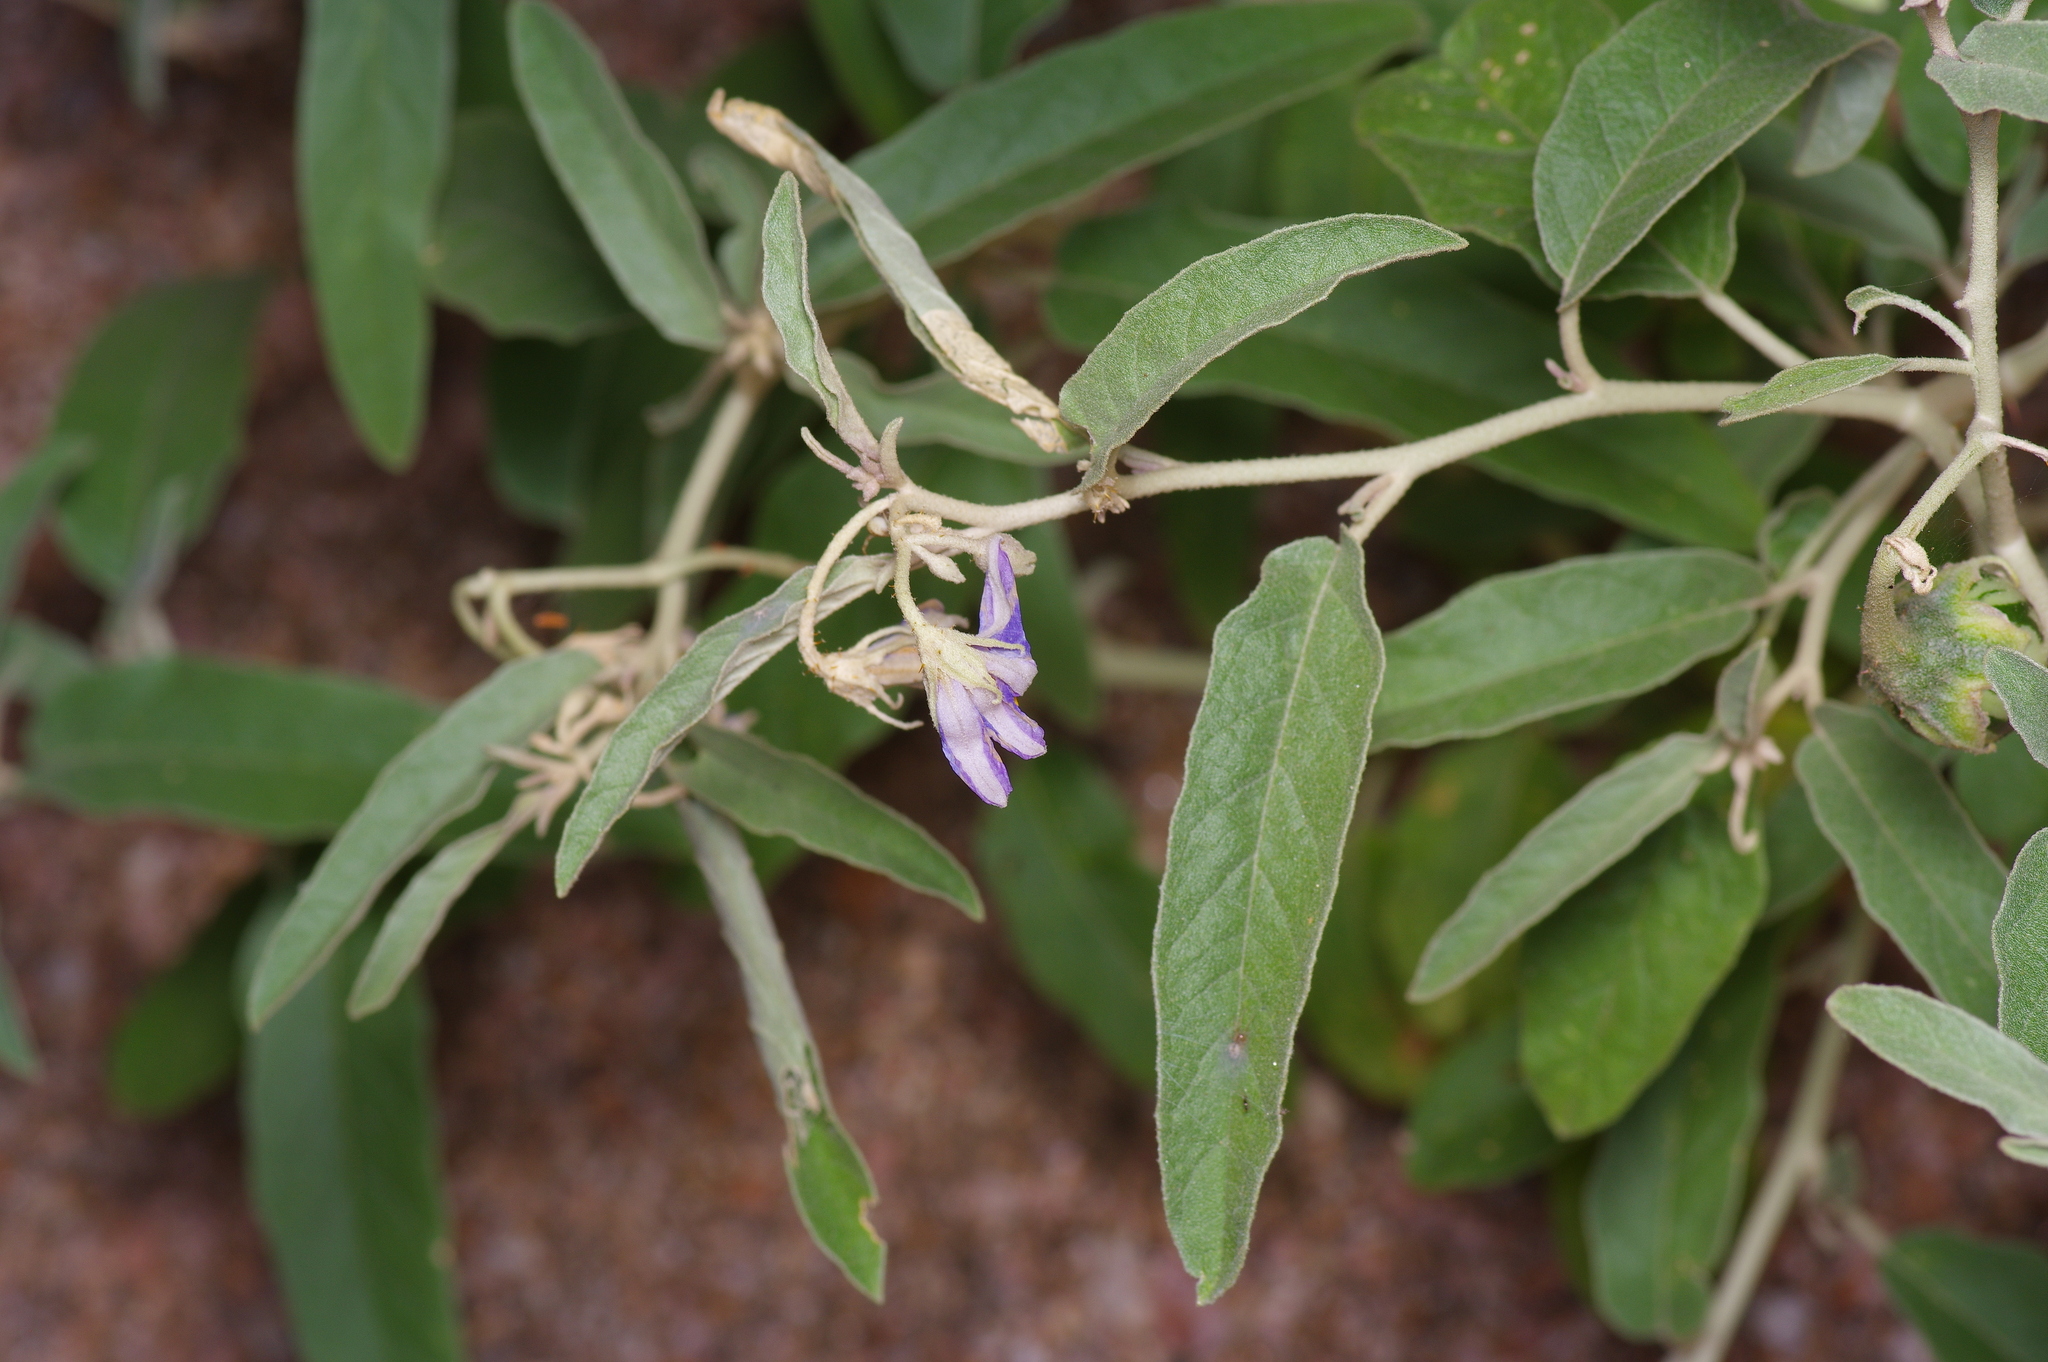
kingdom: Plantae
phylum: Tracheophyta
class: Magnoliopsida
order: Solanales
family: Solanaceae
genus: Solanum
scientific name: Solanum elaeagnifolium
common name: Silverleaf nightshade
